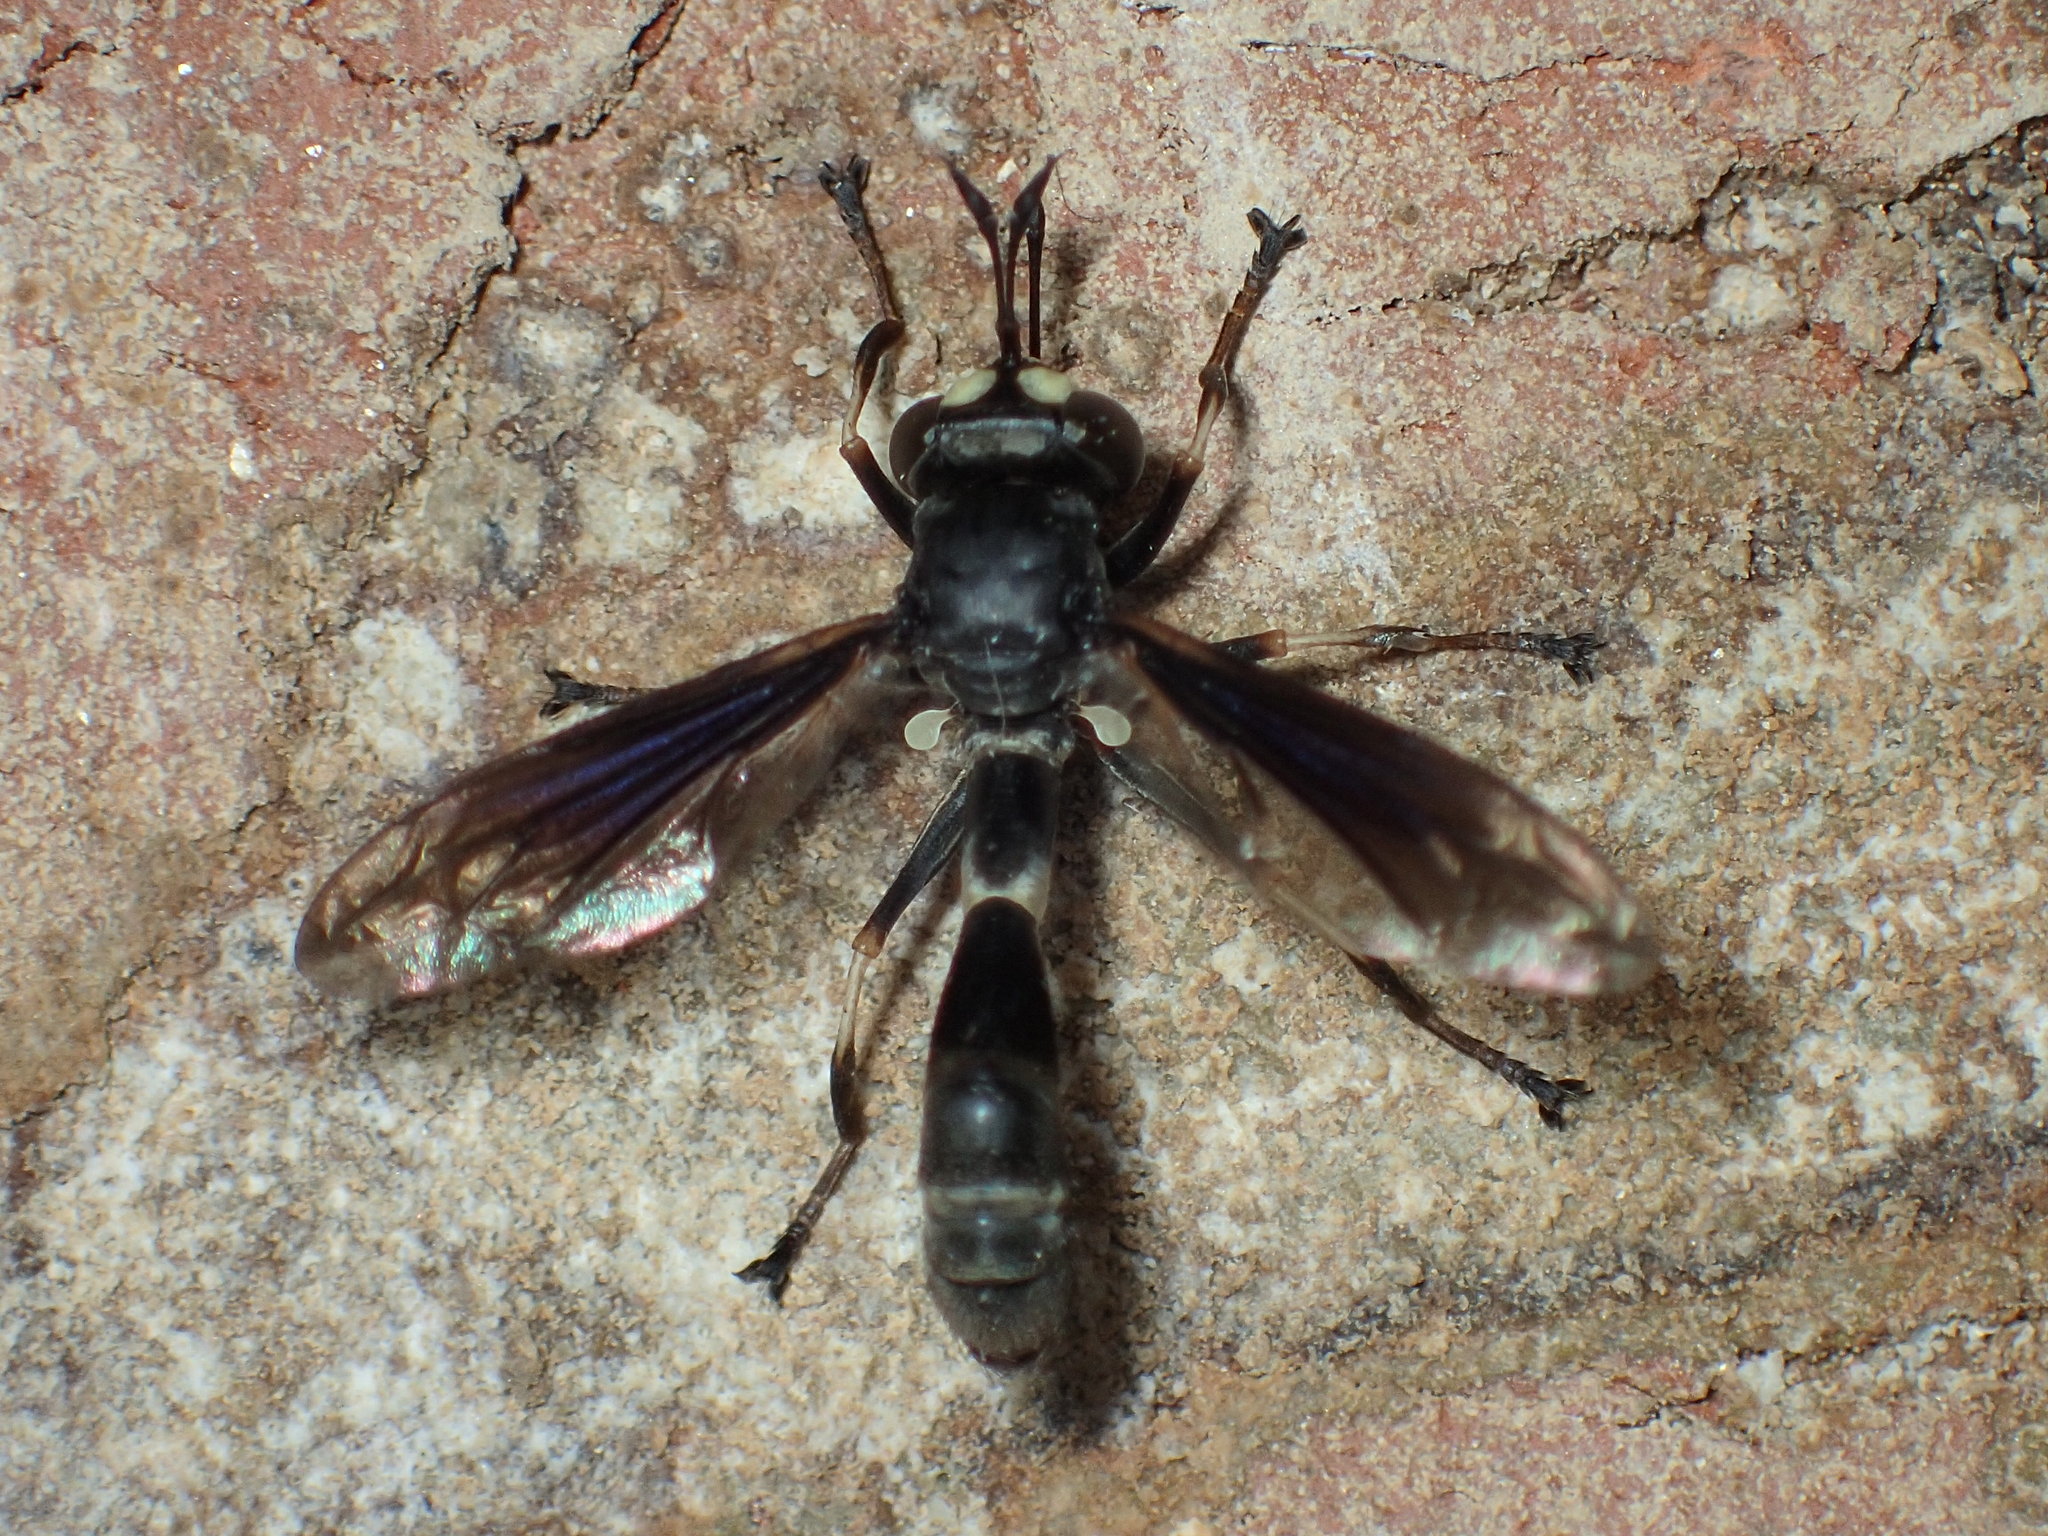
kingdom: Animalia
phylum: Arthropoda
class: Insecta
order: Diptera
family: Conopidae
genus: Physocephala
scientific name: Physocephala tibialis
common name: Common eastern physocephala
